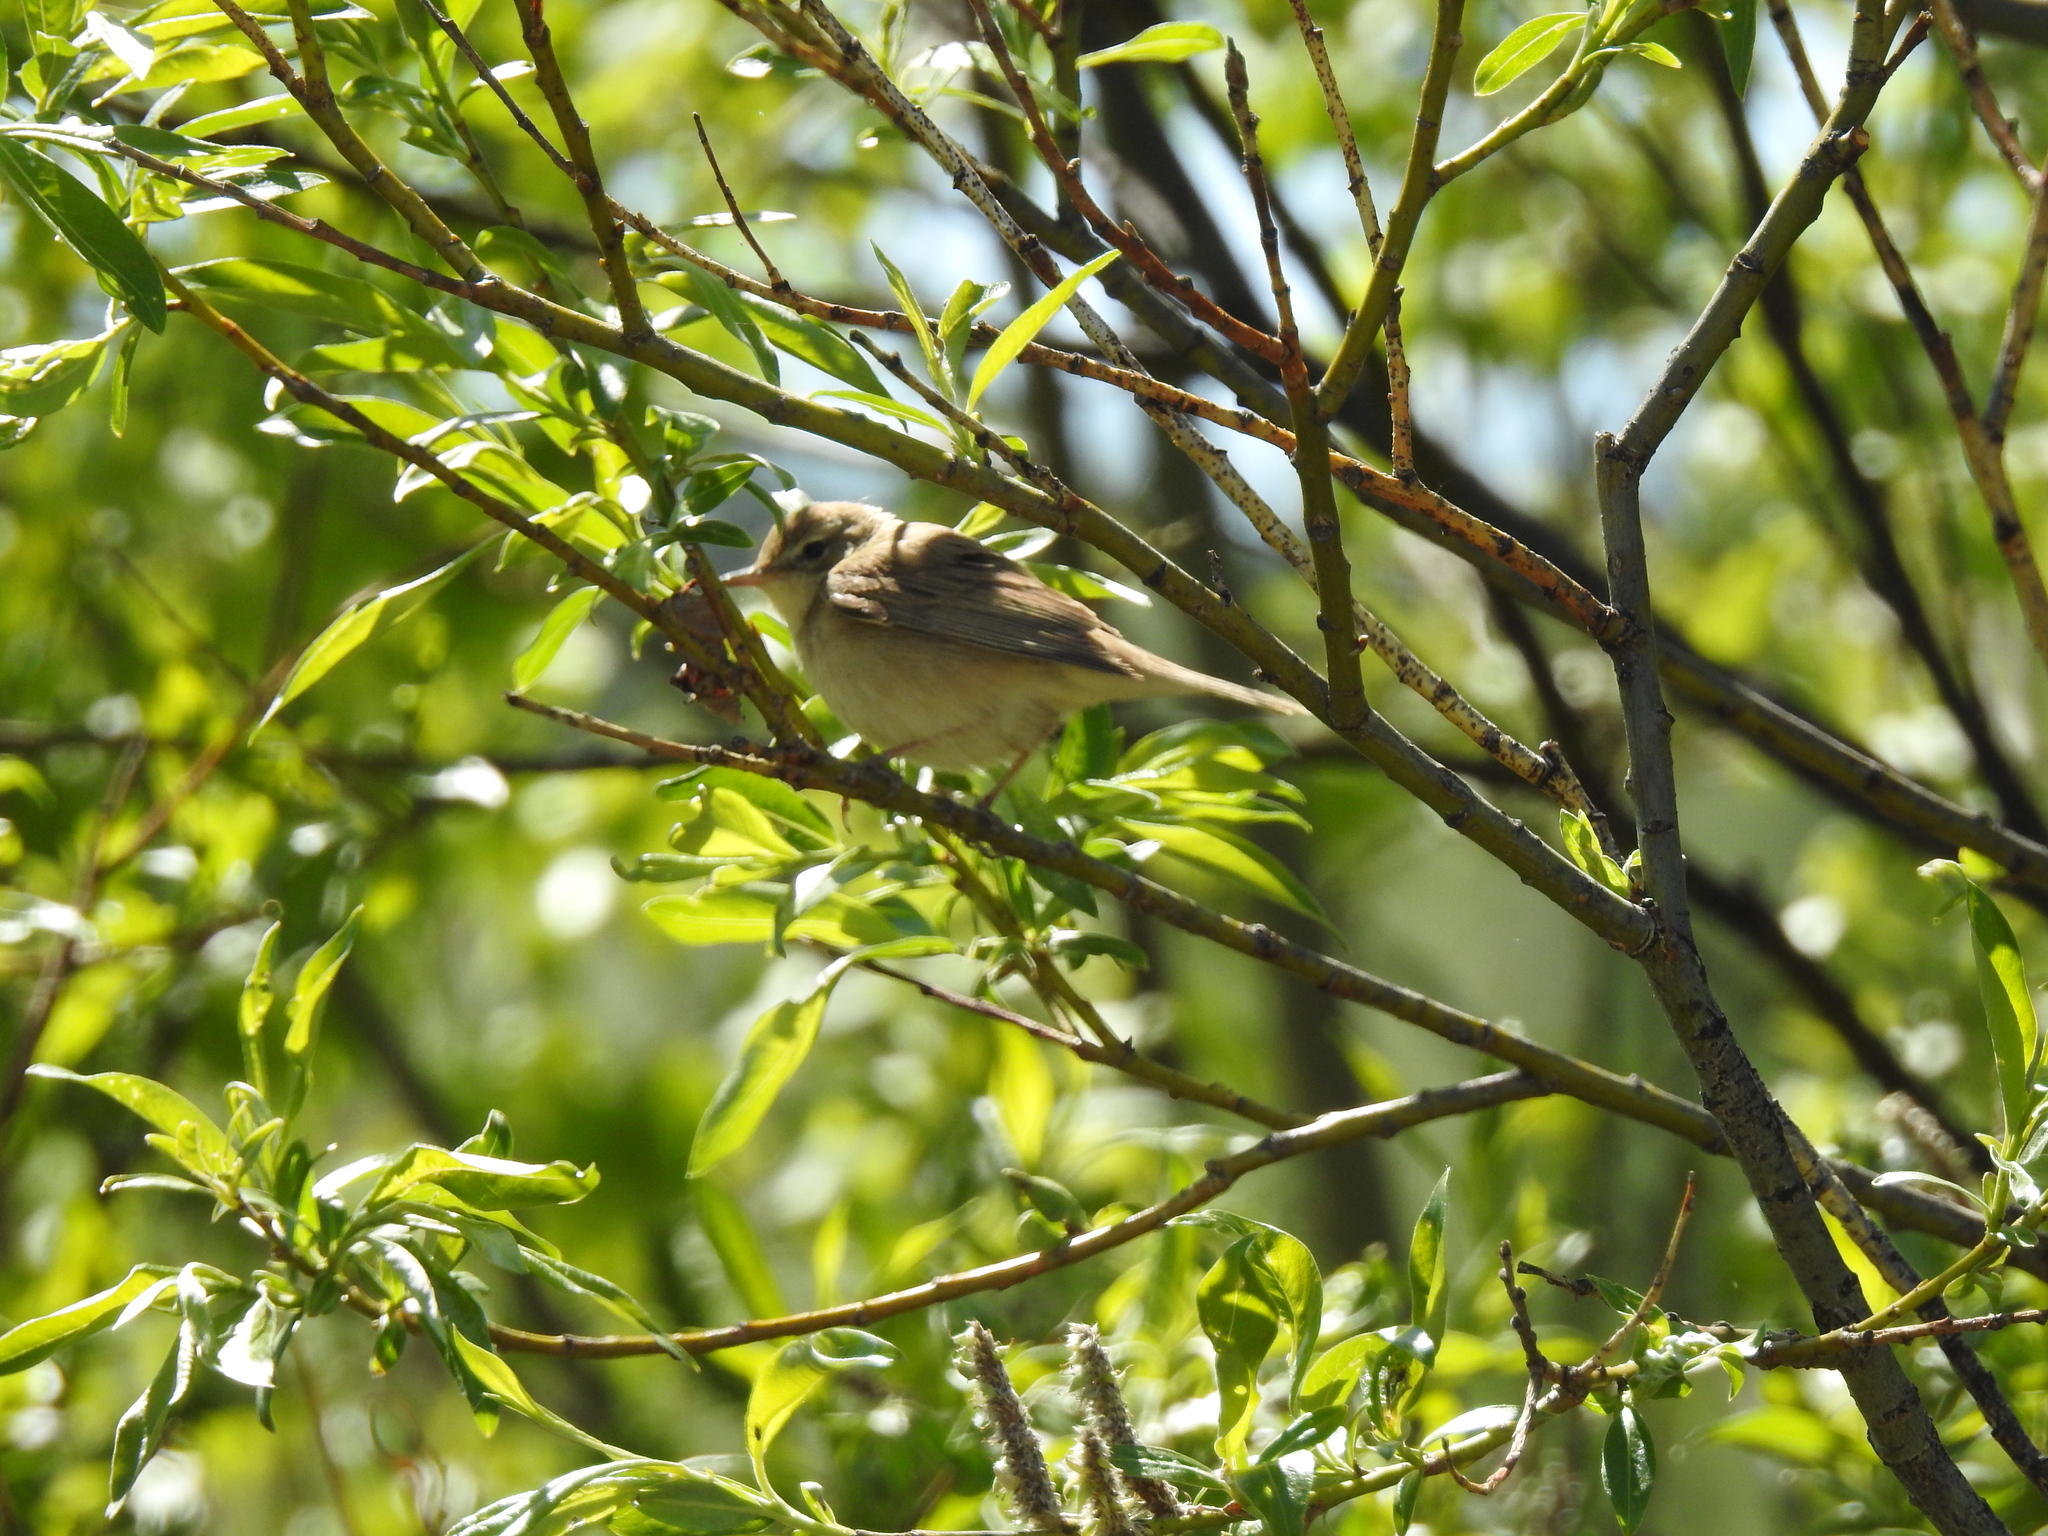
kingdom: Animalia
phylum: Chordata
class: Aves
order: Passeriformes
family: Phylloscopidae
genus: Phylloscopus
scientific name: Phylloscopus trochilus
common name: Willow warbler
